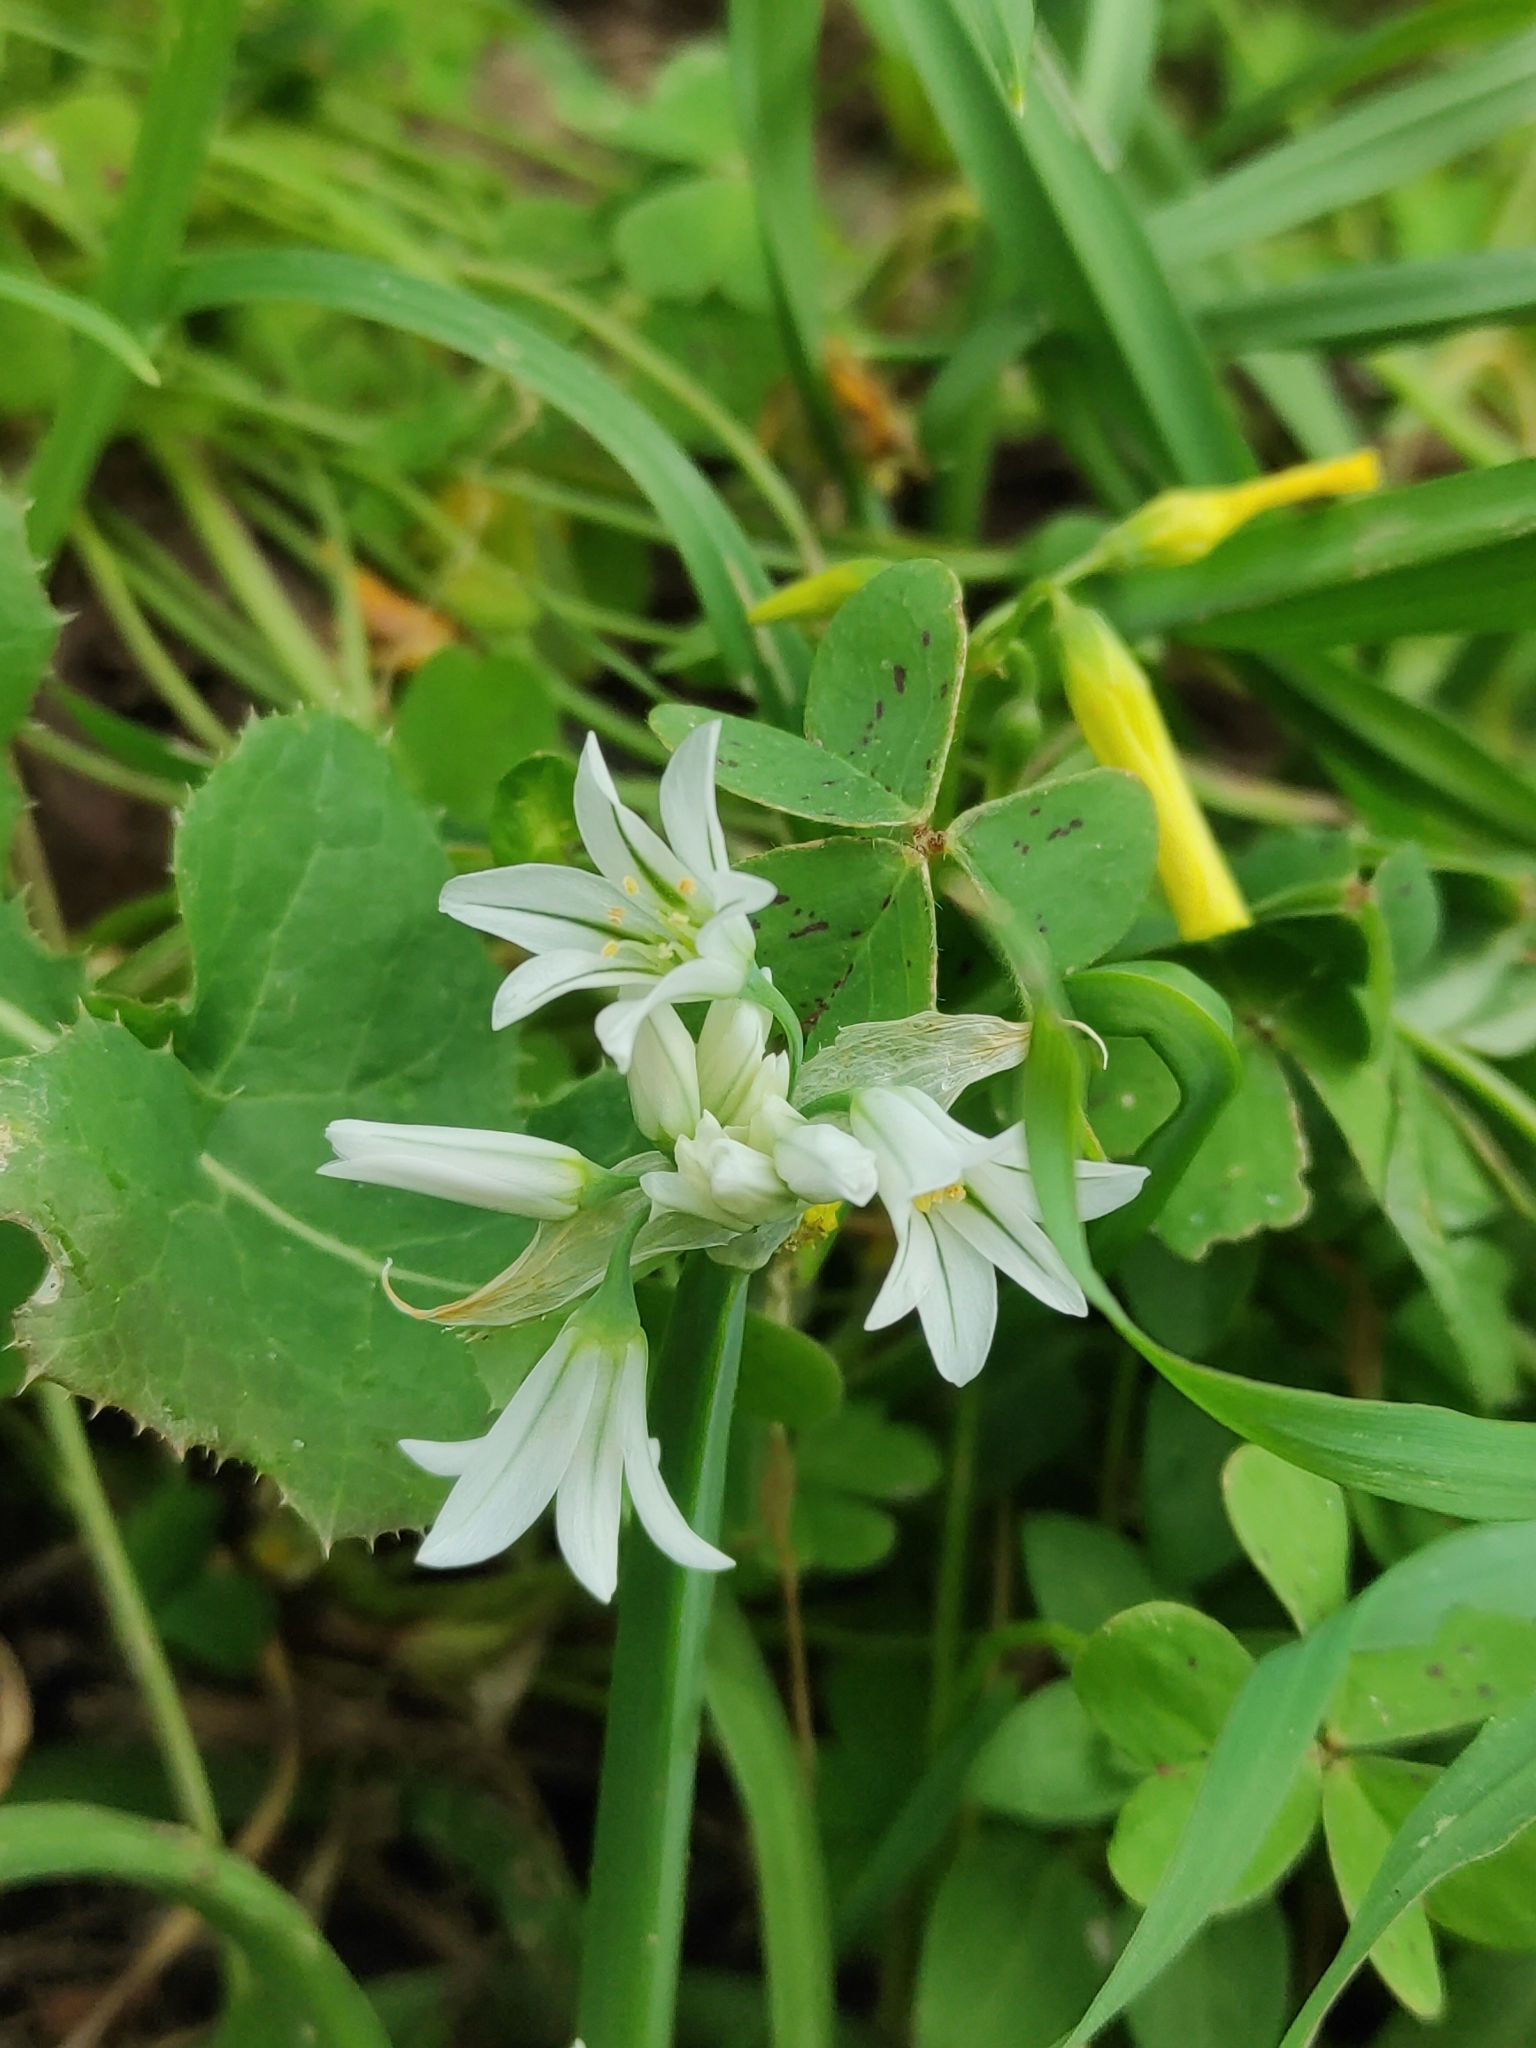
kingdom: Plantae
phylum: Tracheophyta
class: Liliopsida
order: Asparagales
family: Amaryllidaceae
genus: Allium
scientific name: Allium triquetrum
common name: Three-cornered garlic
